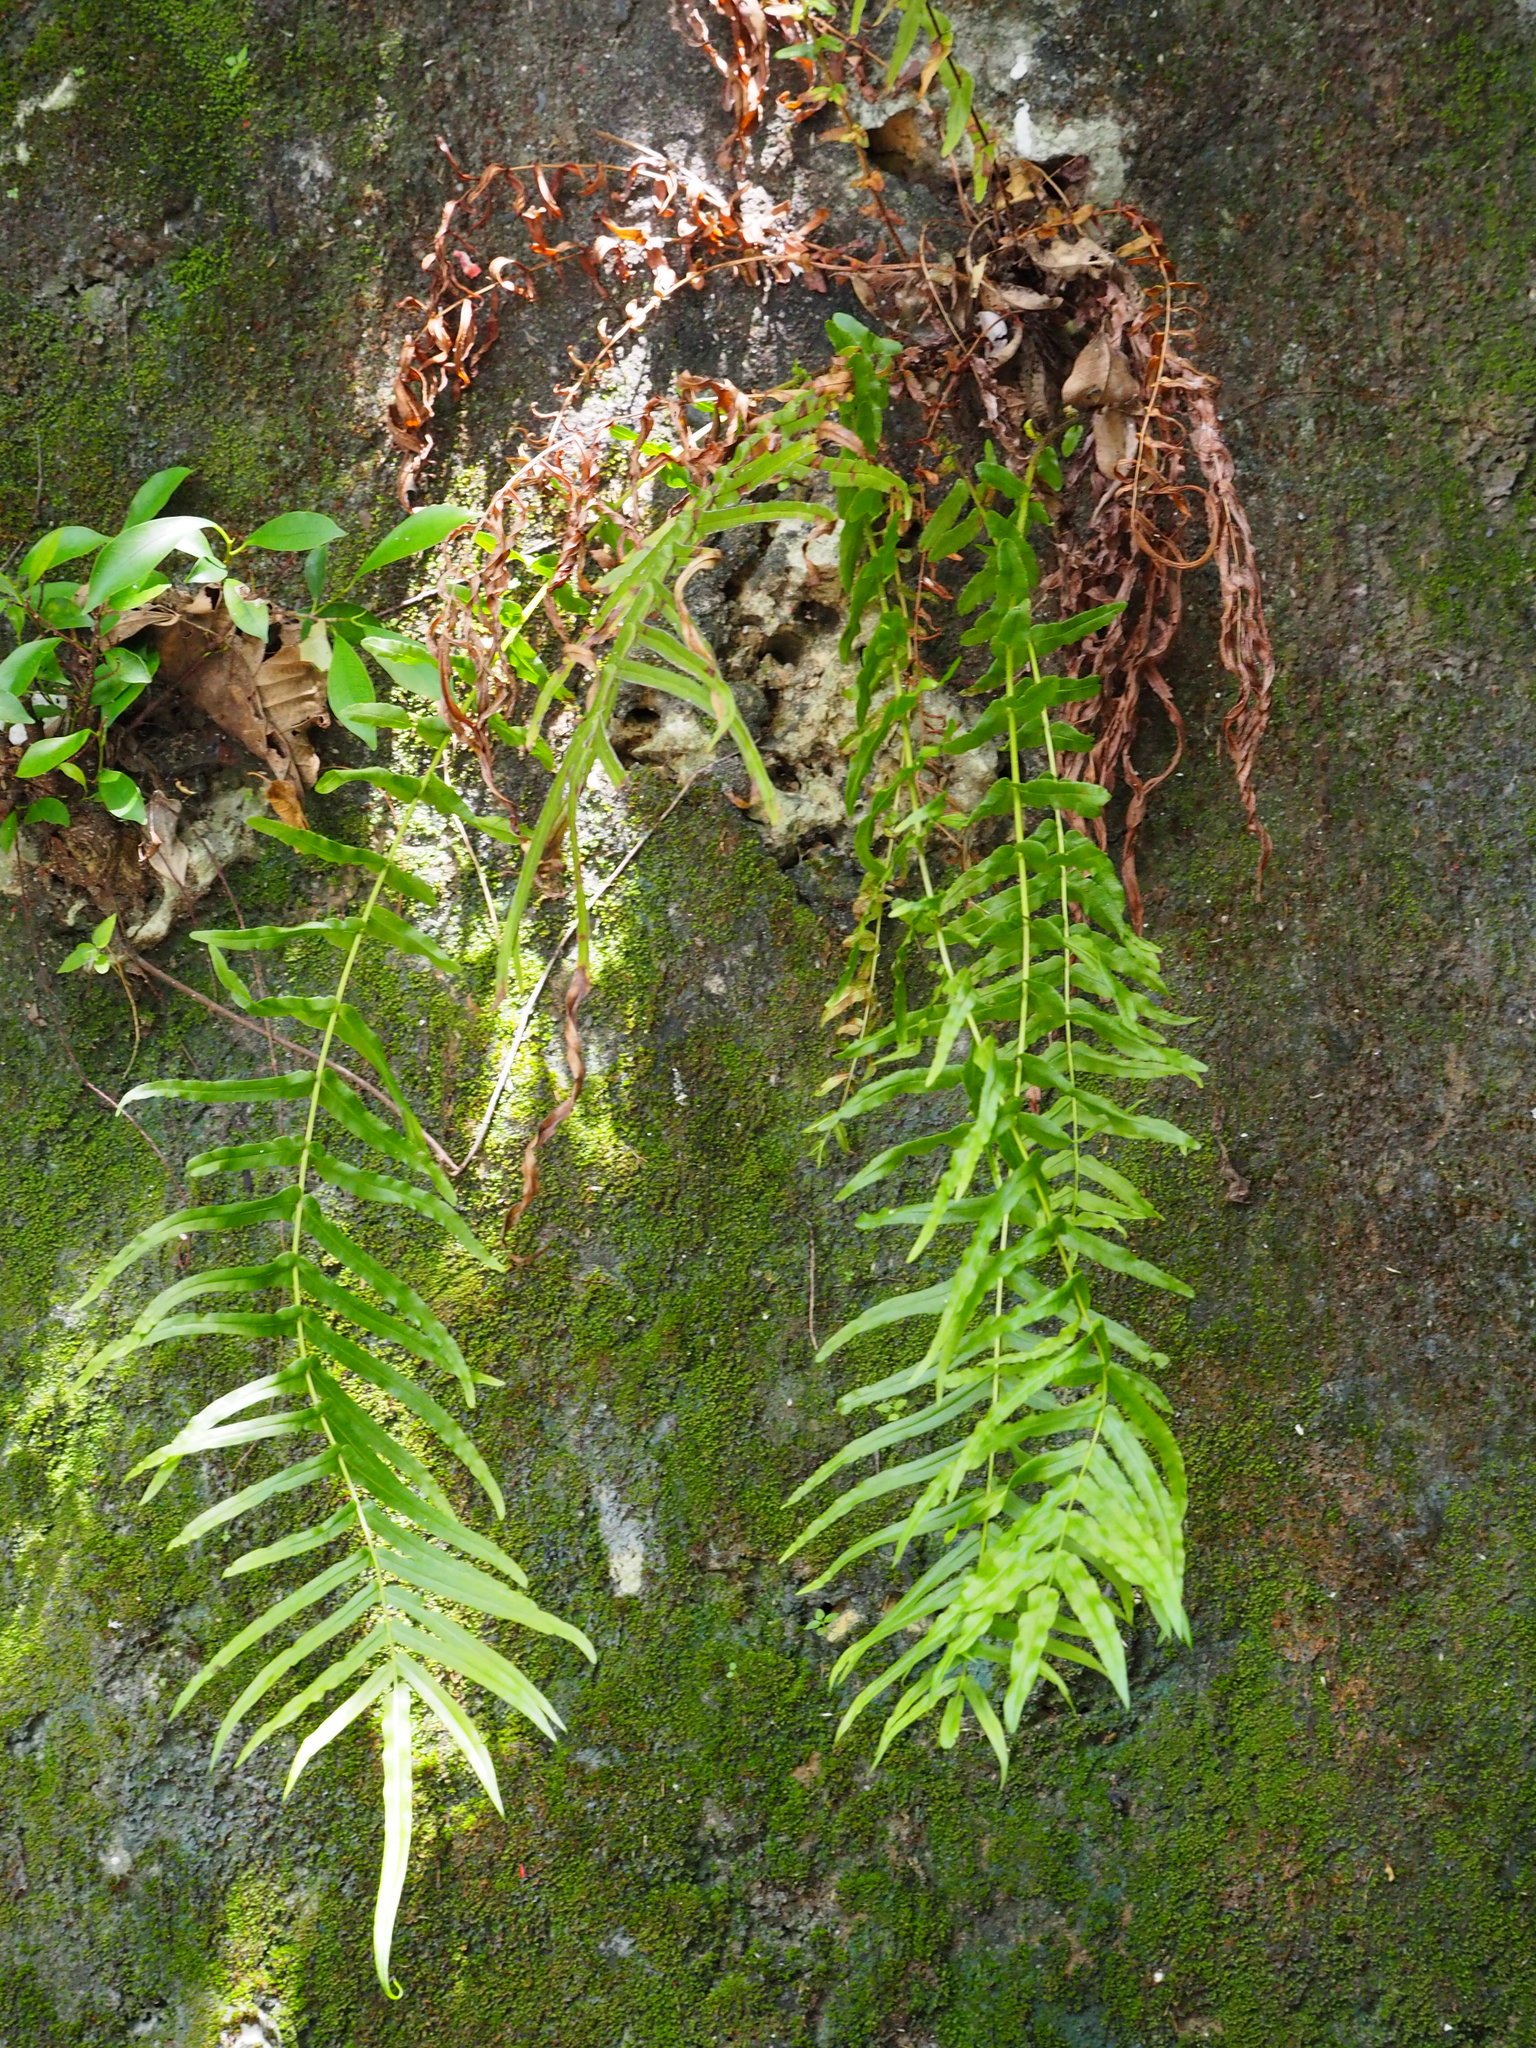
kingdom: Plantae
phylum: Tracheophyta
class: Polypodiopsida
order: Polypodiales
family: Pteridaceae
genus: Pteris
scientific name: Pteris vittata
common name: Ladder brake
